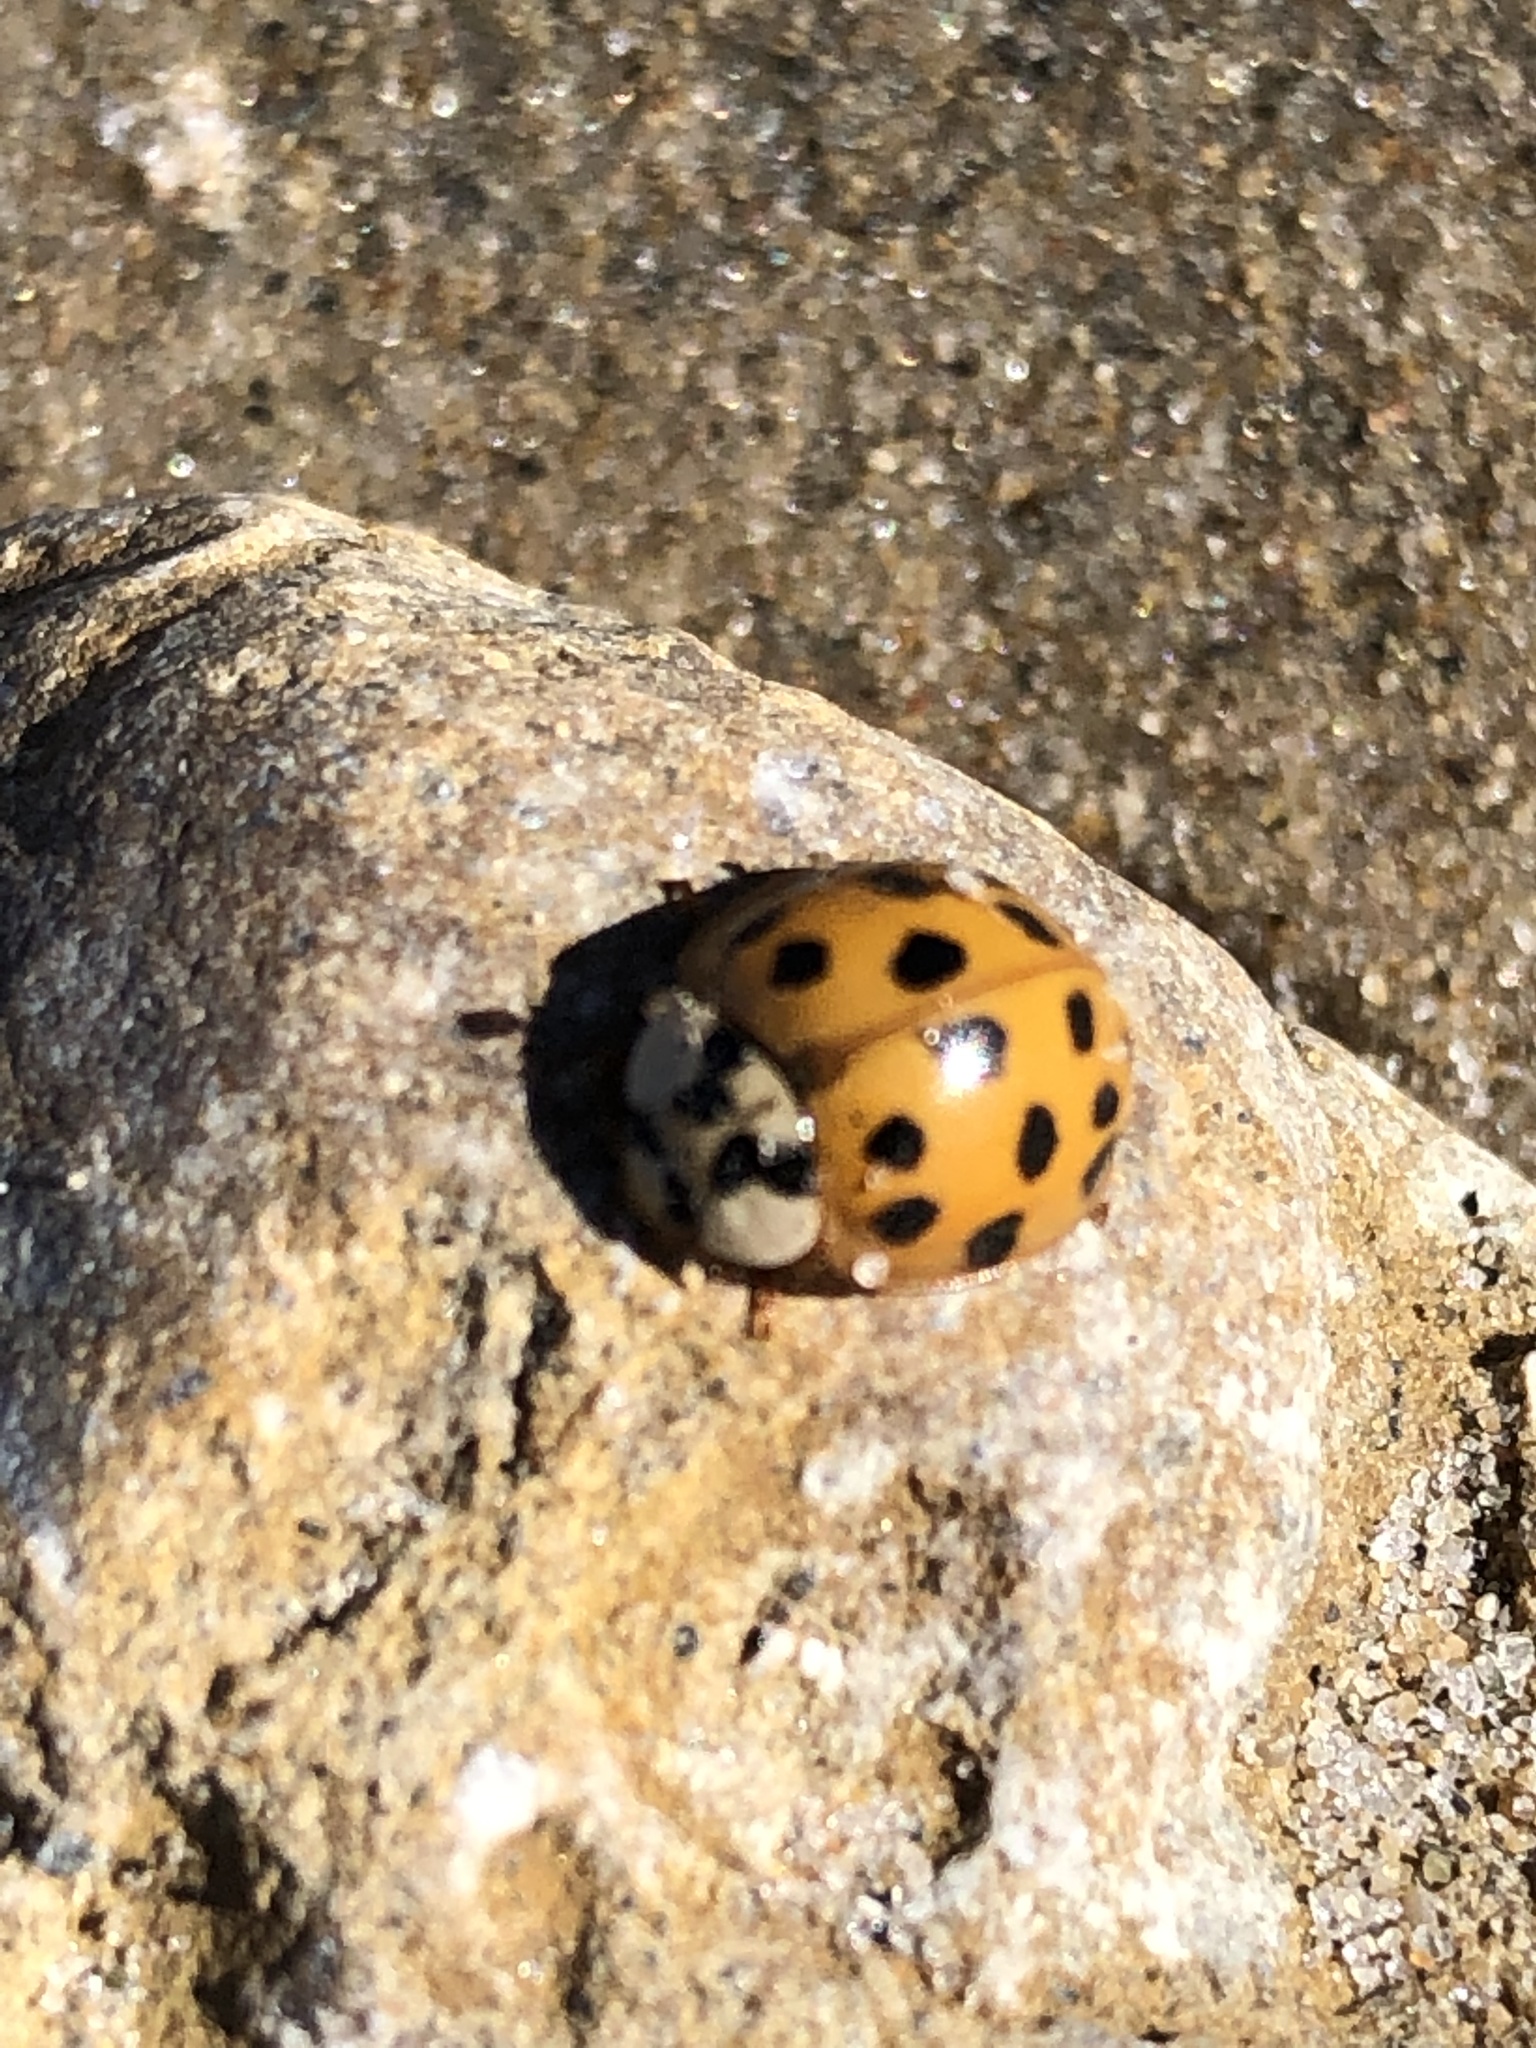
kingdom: Animalia
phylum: Arthropoda
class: Insecta
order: Coleoptera
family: Coccinellidae
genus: Harmonia
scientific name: Harmonia axyridis
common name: Harlequin ladybird
